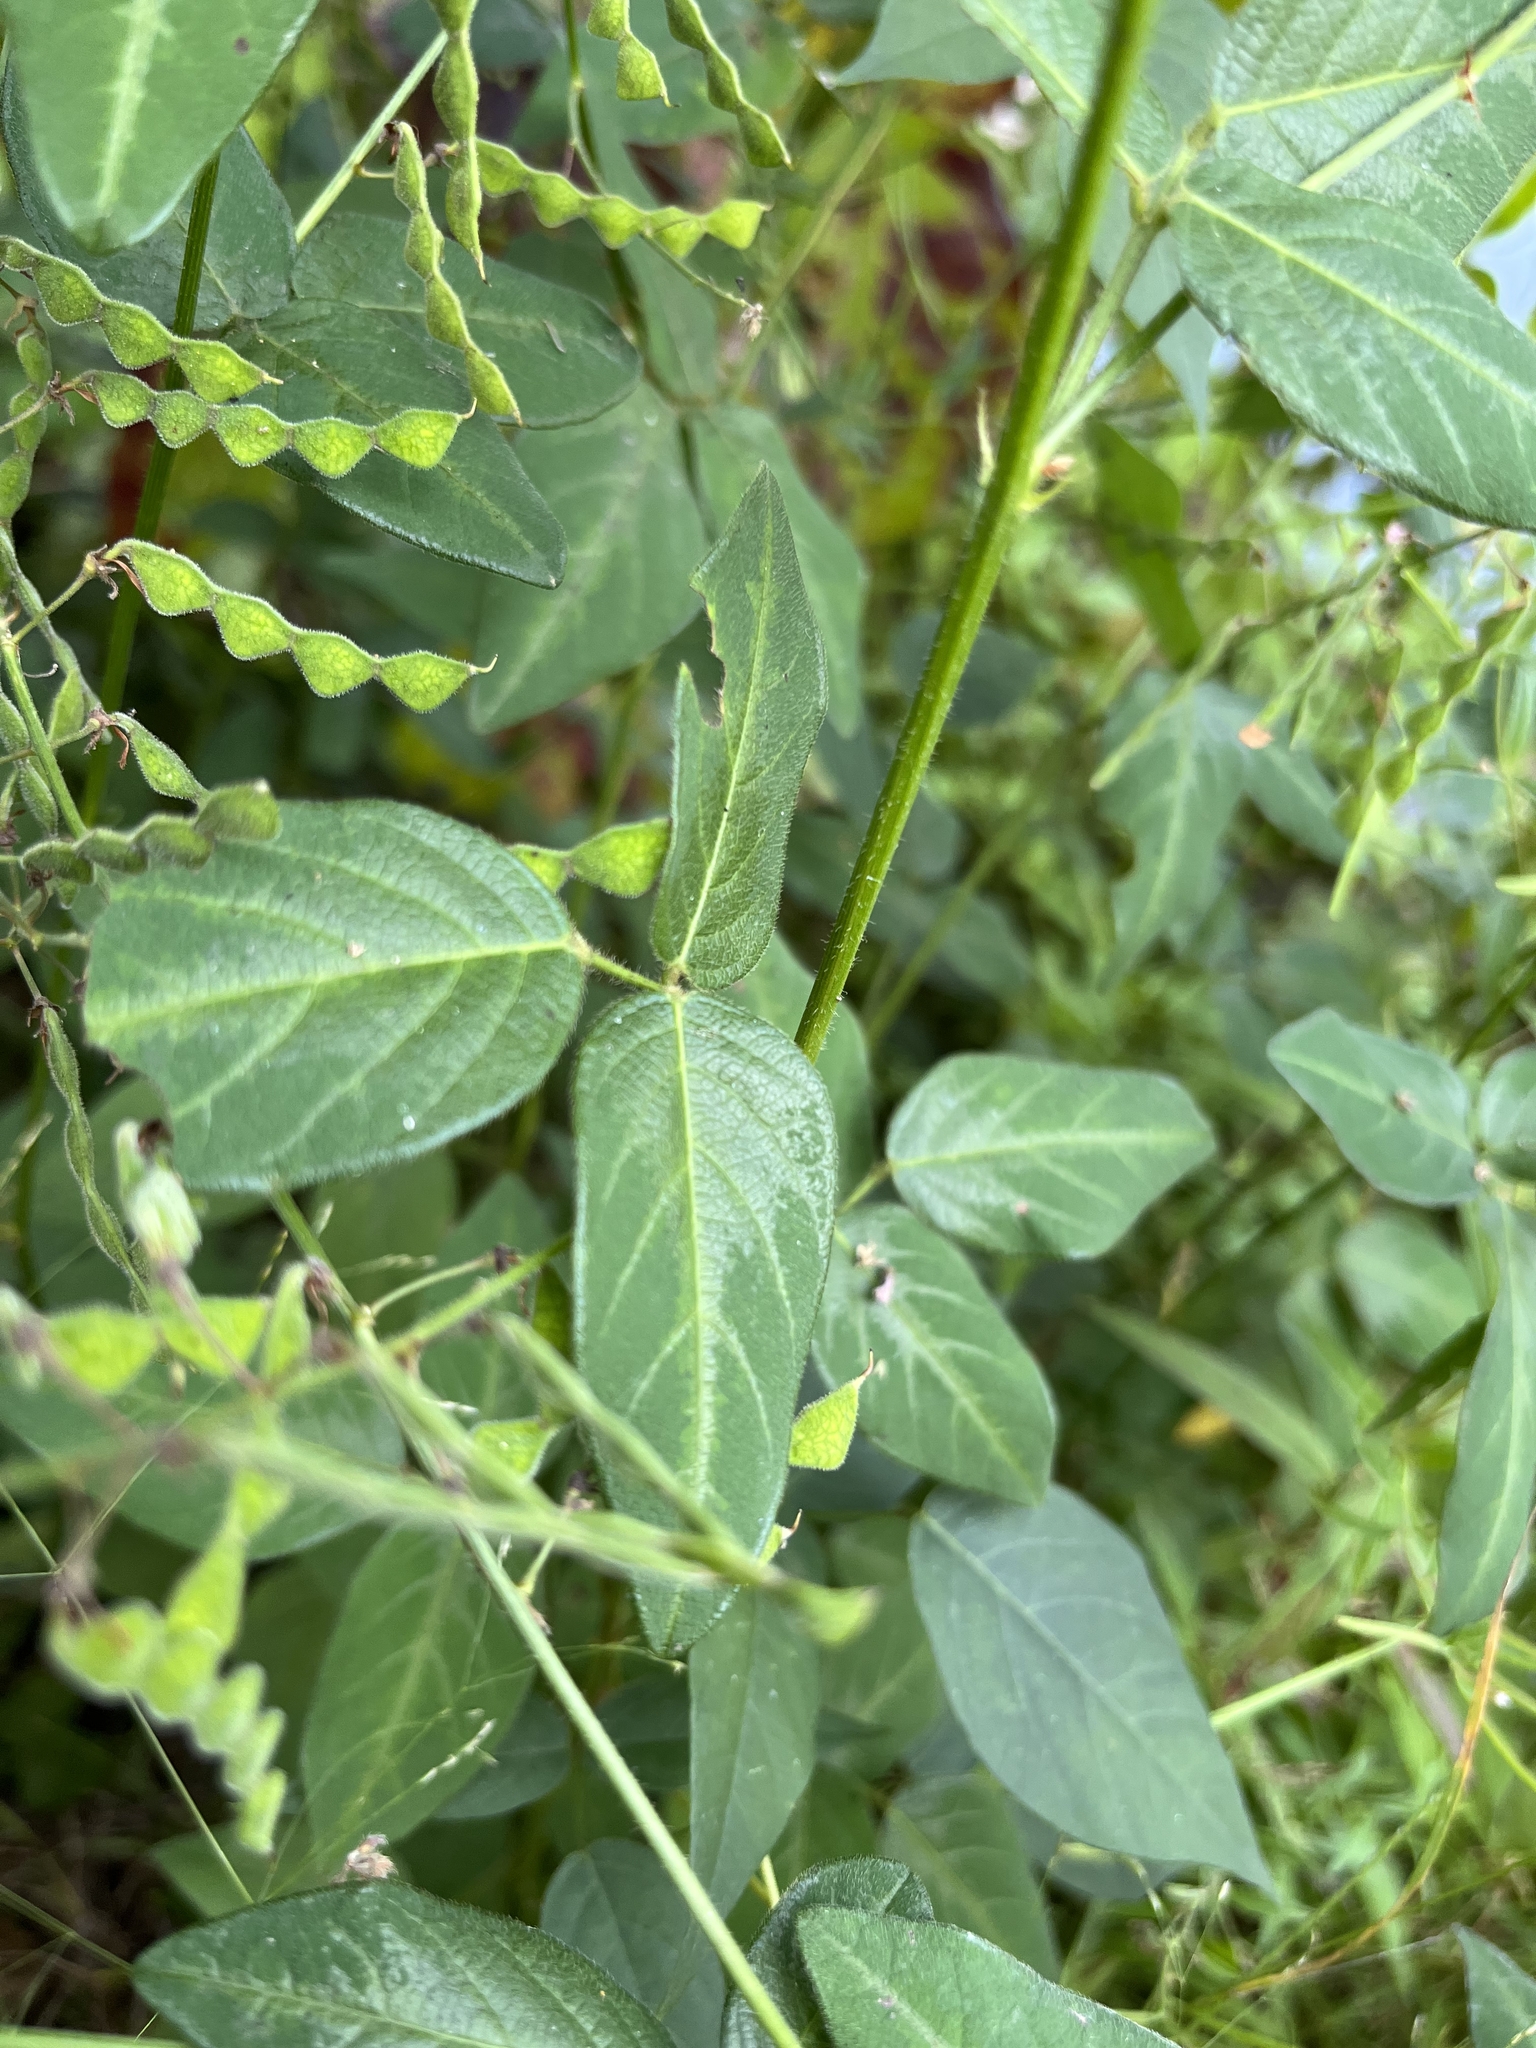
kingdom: Plantae
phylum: Tracheophyta
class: Magnoliopsida
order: Fabales
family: Fabaceae
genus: Desmodium
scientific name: Desmodium glabellum
